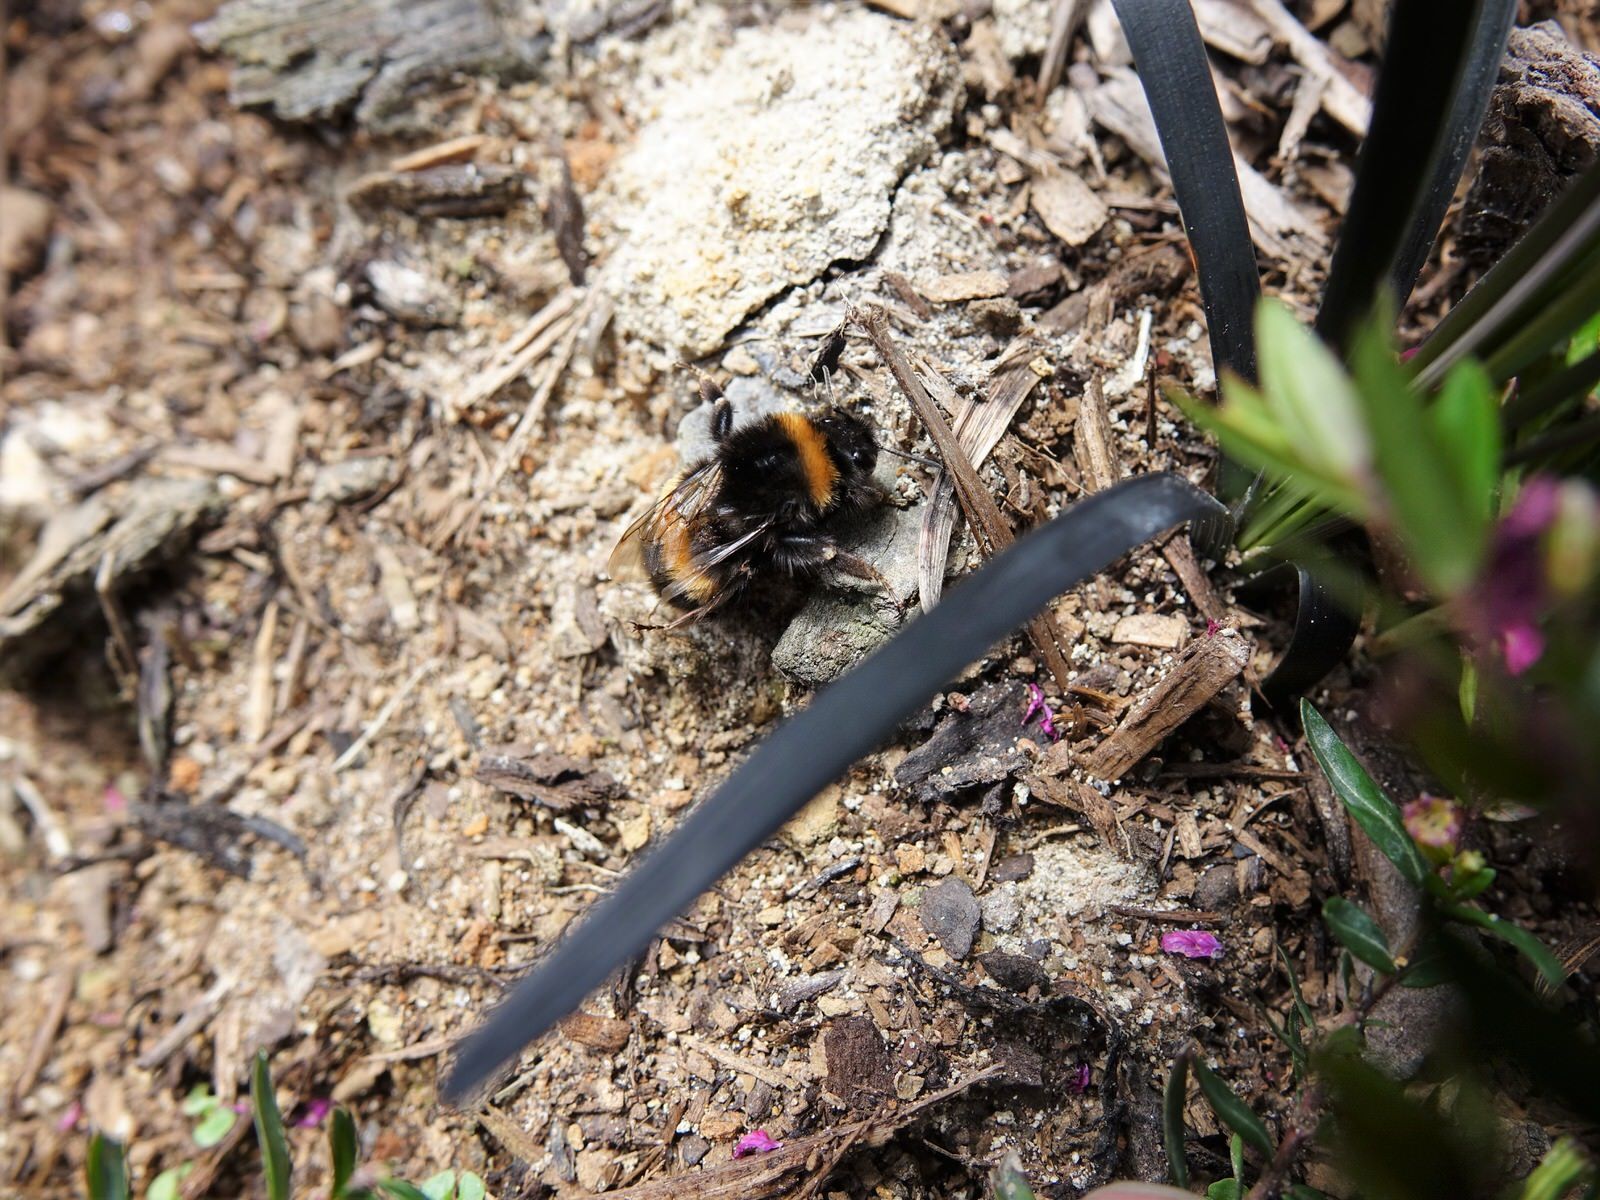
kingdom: Animalia
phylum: Arthropoda
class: Insecta
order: Hymenoptera
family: Apidae
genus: Bombus
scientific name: Bombus terrestris
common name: Buff-tailed bumblebee
